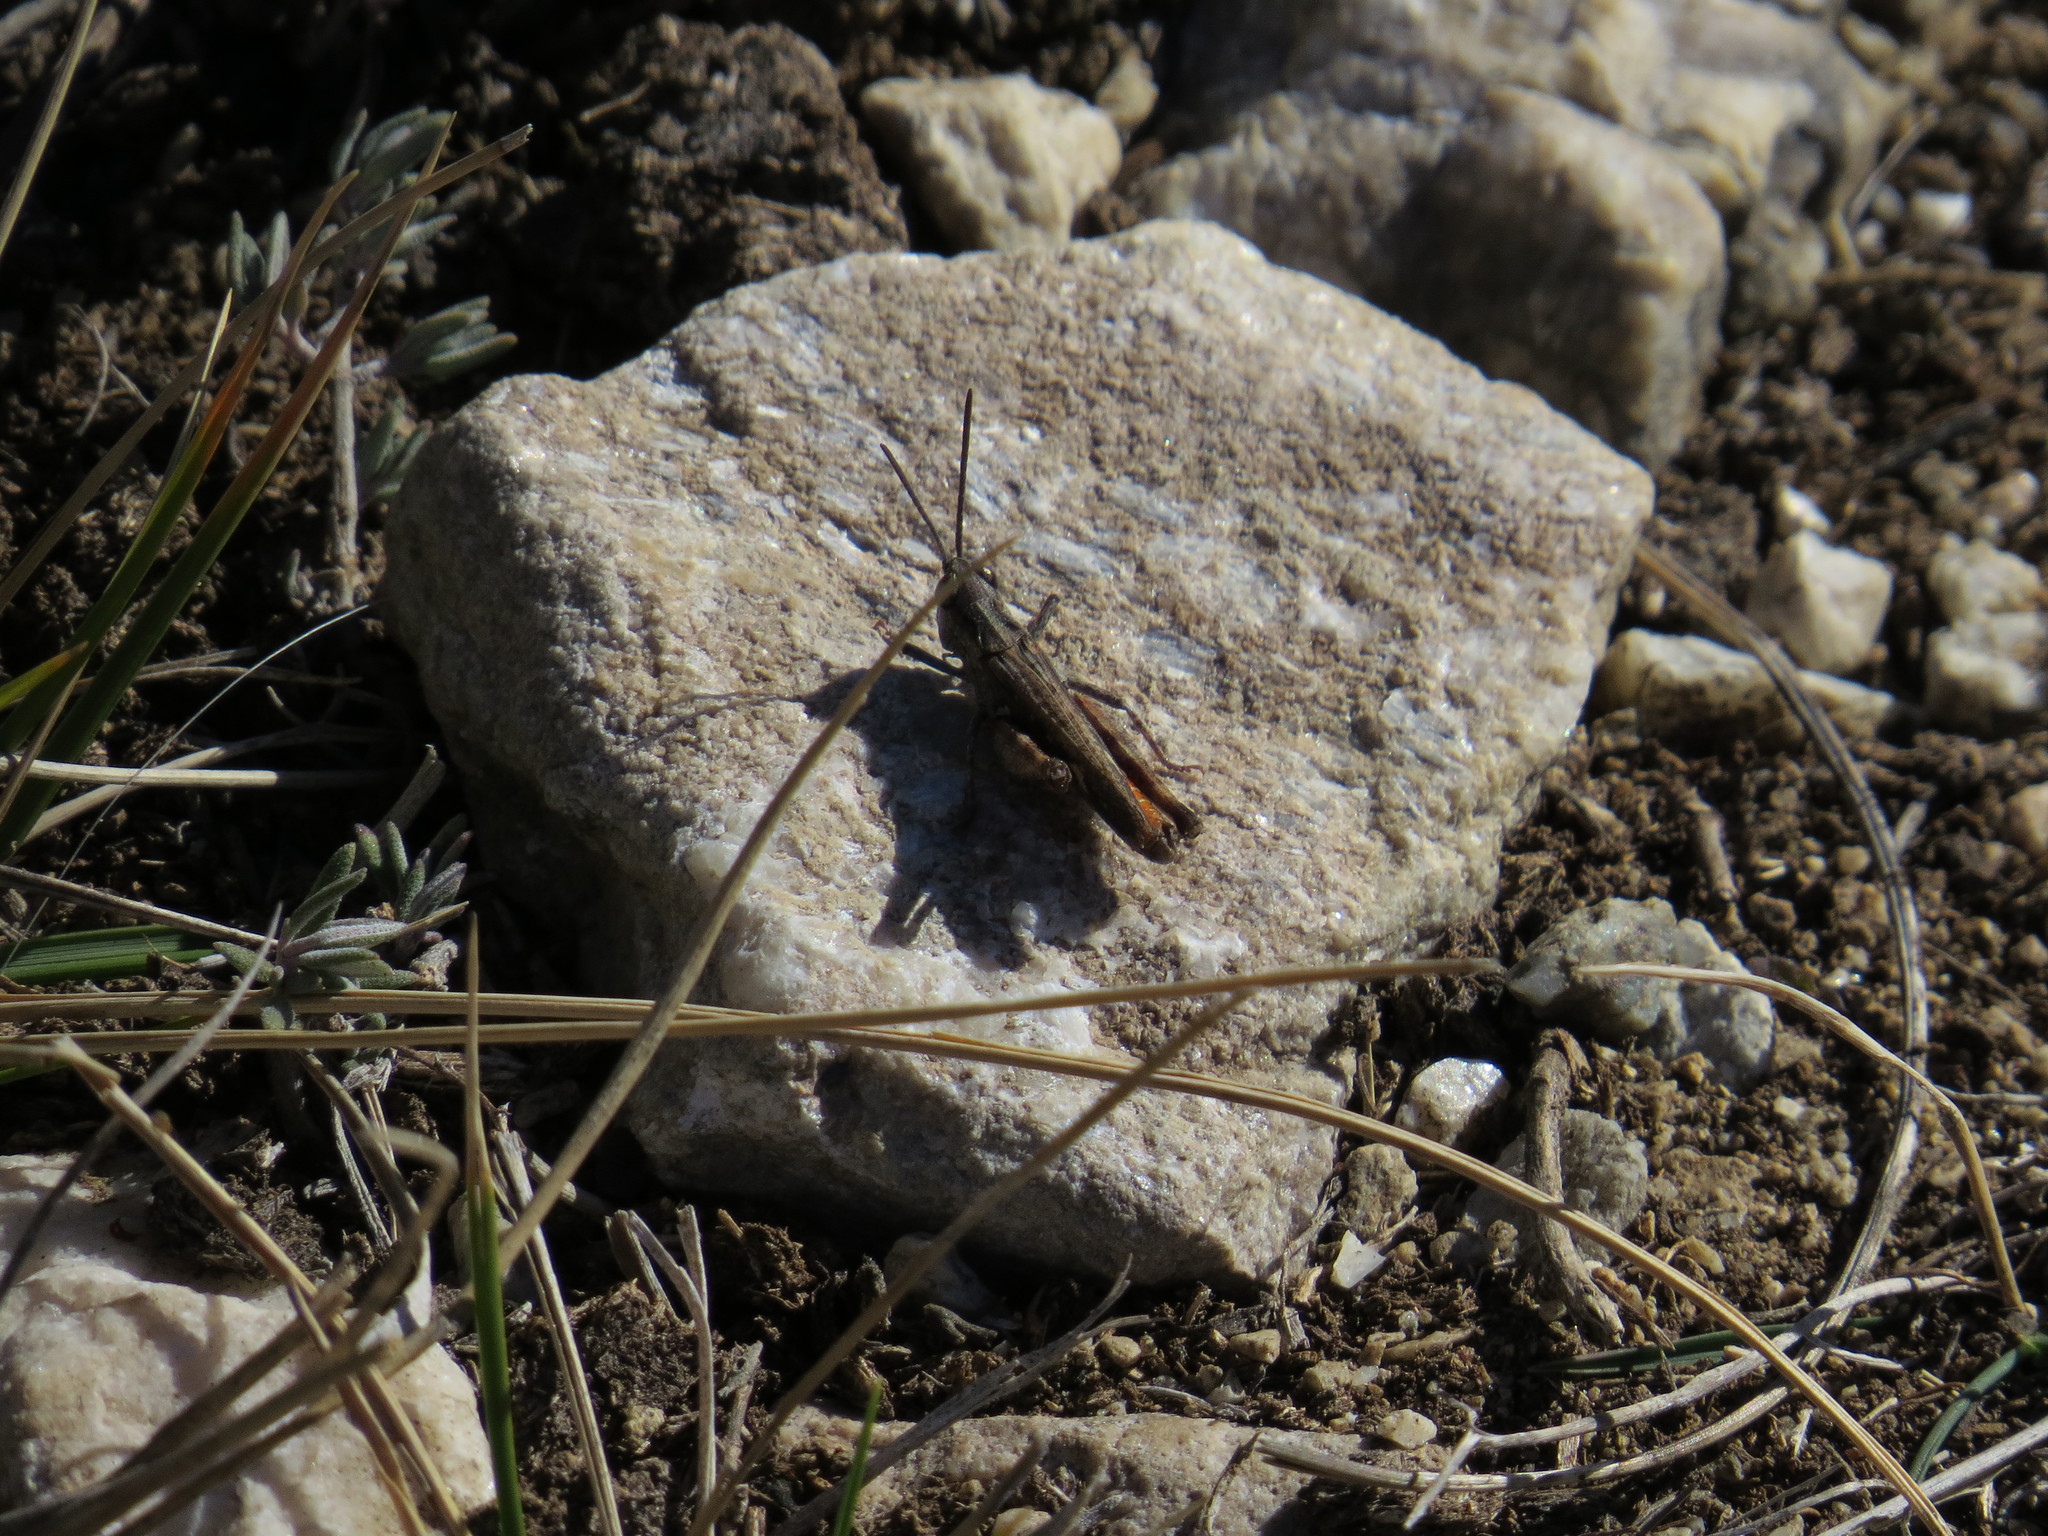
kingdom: Animalia
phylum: Arthropoda
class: Insecta
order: Orthoptera
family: Acrididae
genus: Omocestus
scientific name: Omocestus raymondi
